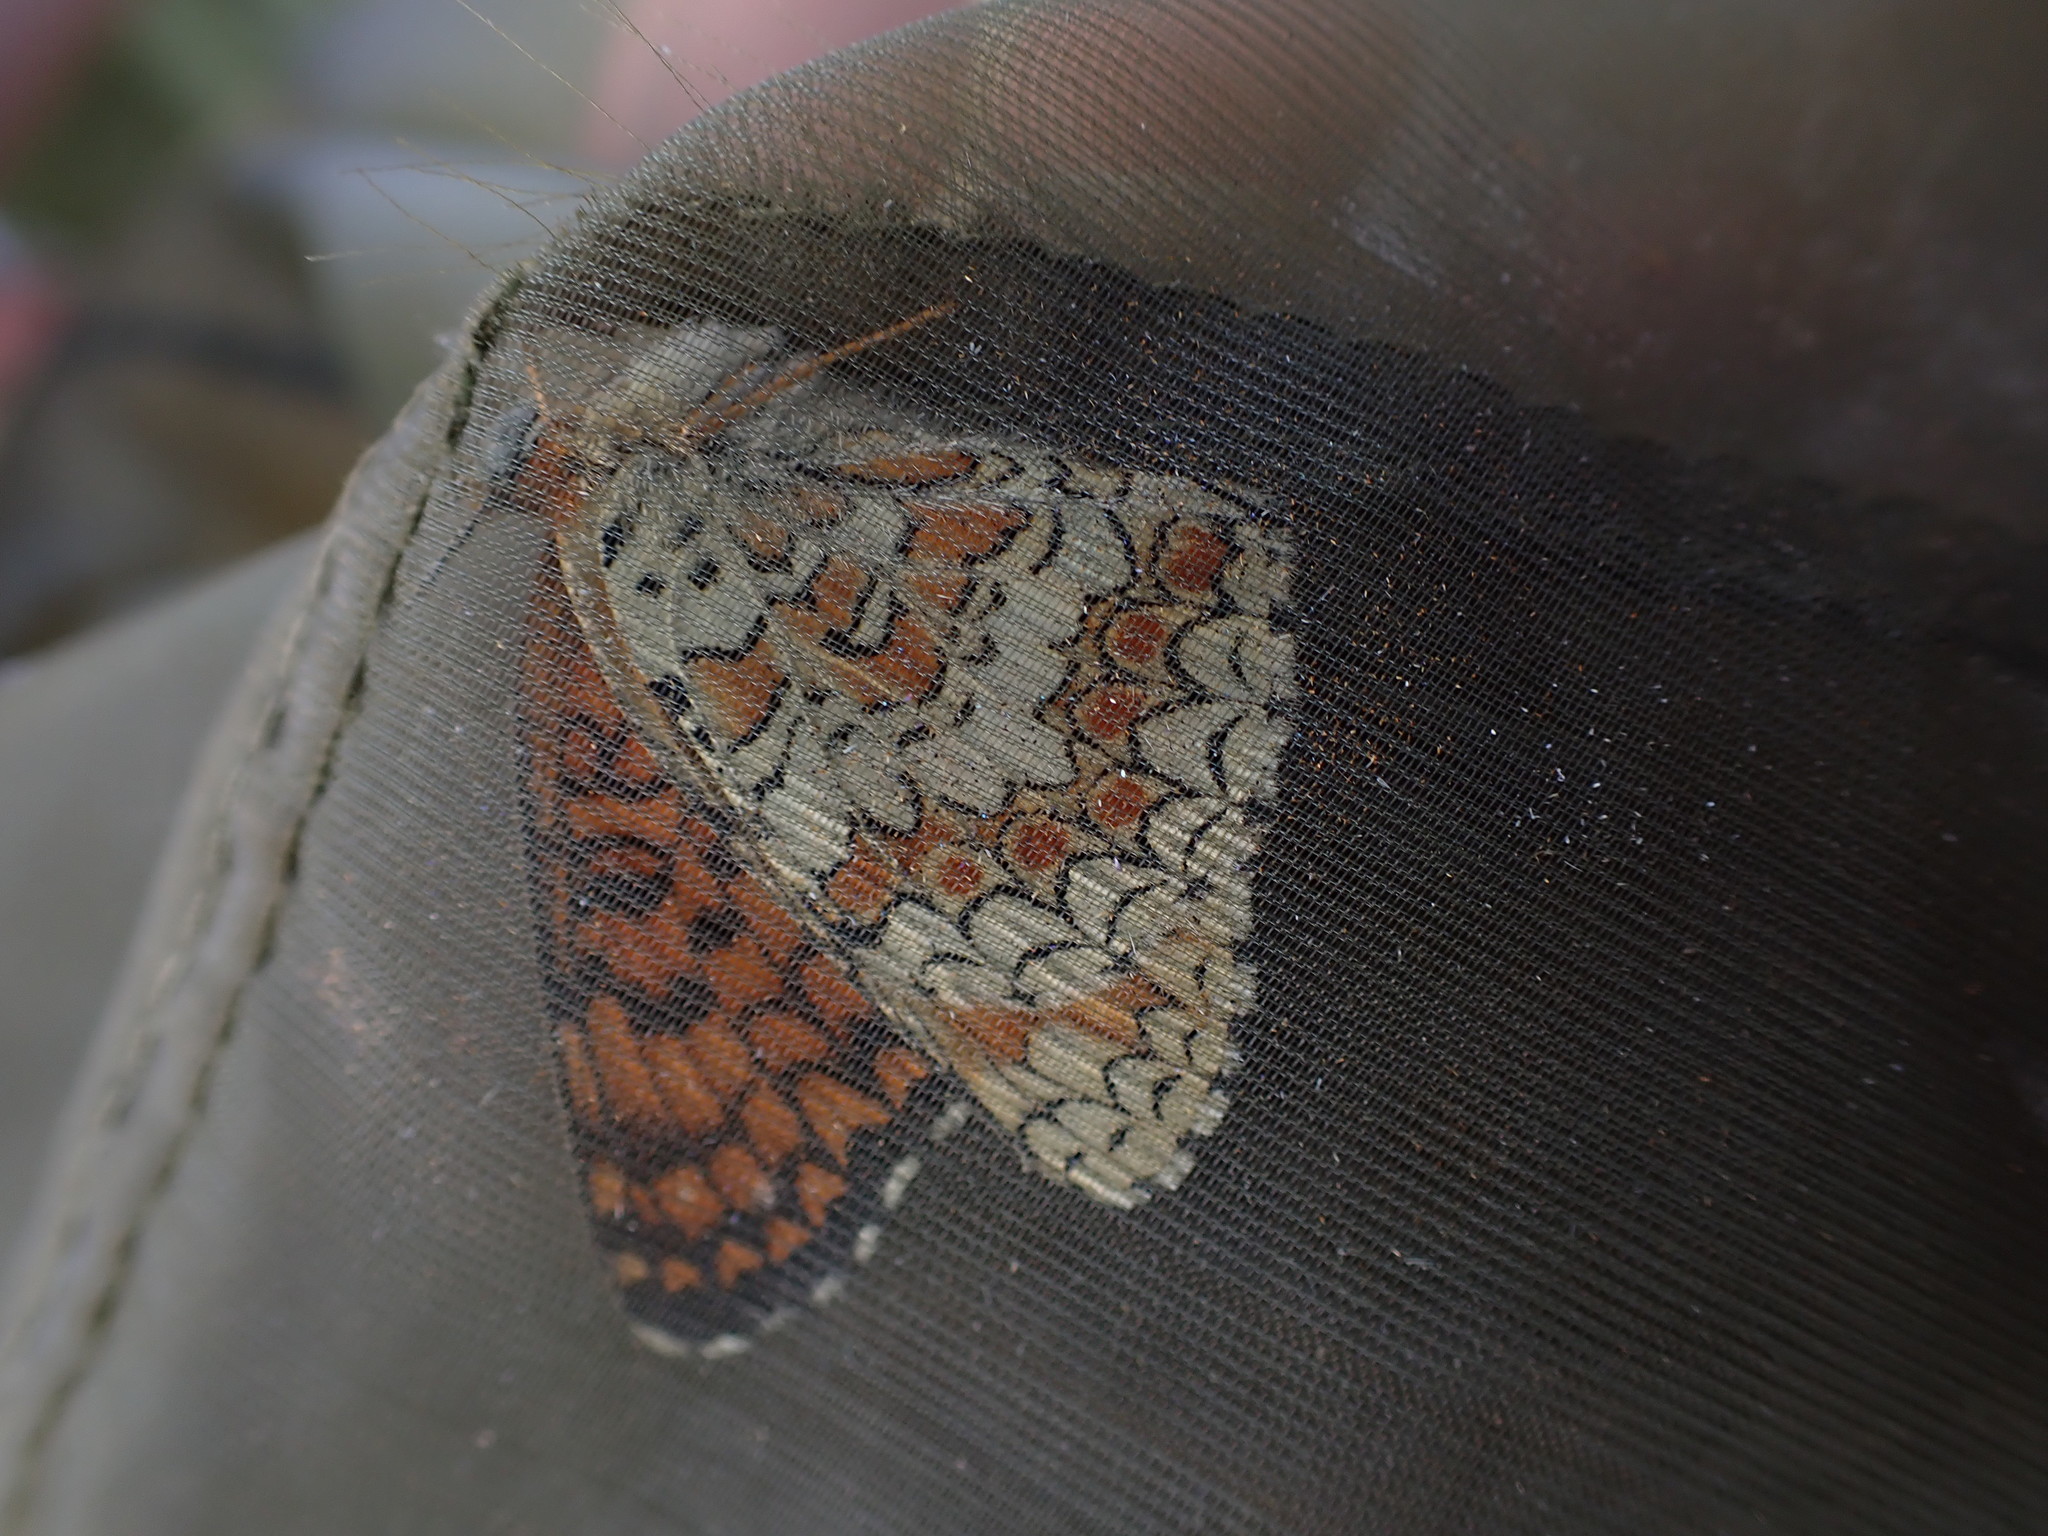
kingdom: Animalia
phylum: Arthropoda
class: Insecta
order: Lepidoptera
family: Nymphalidae
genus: Melitaea
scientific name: Melitaea phoebe
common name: Knapweed fritillary
